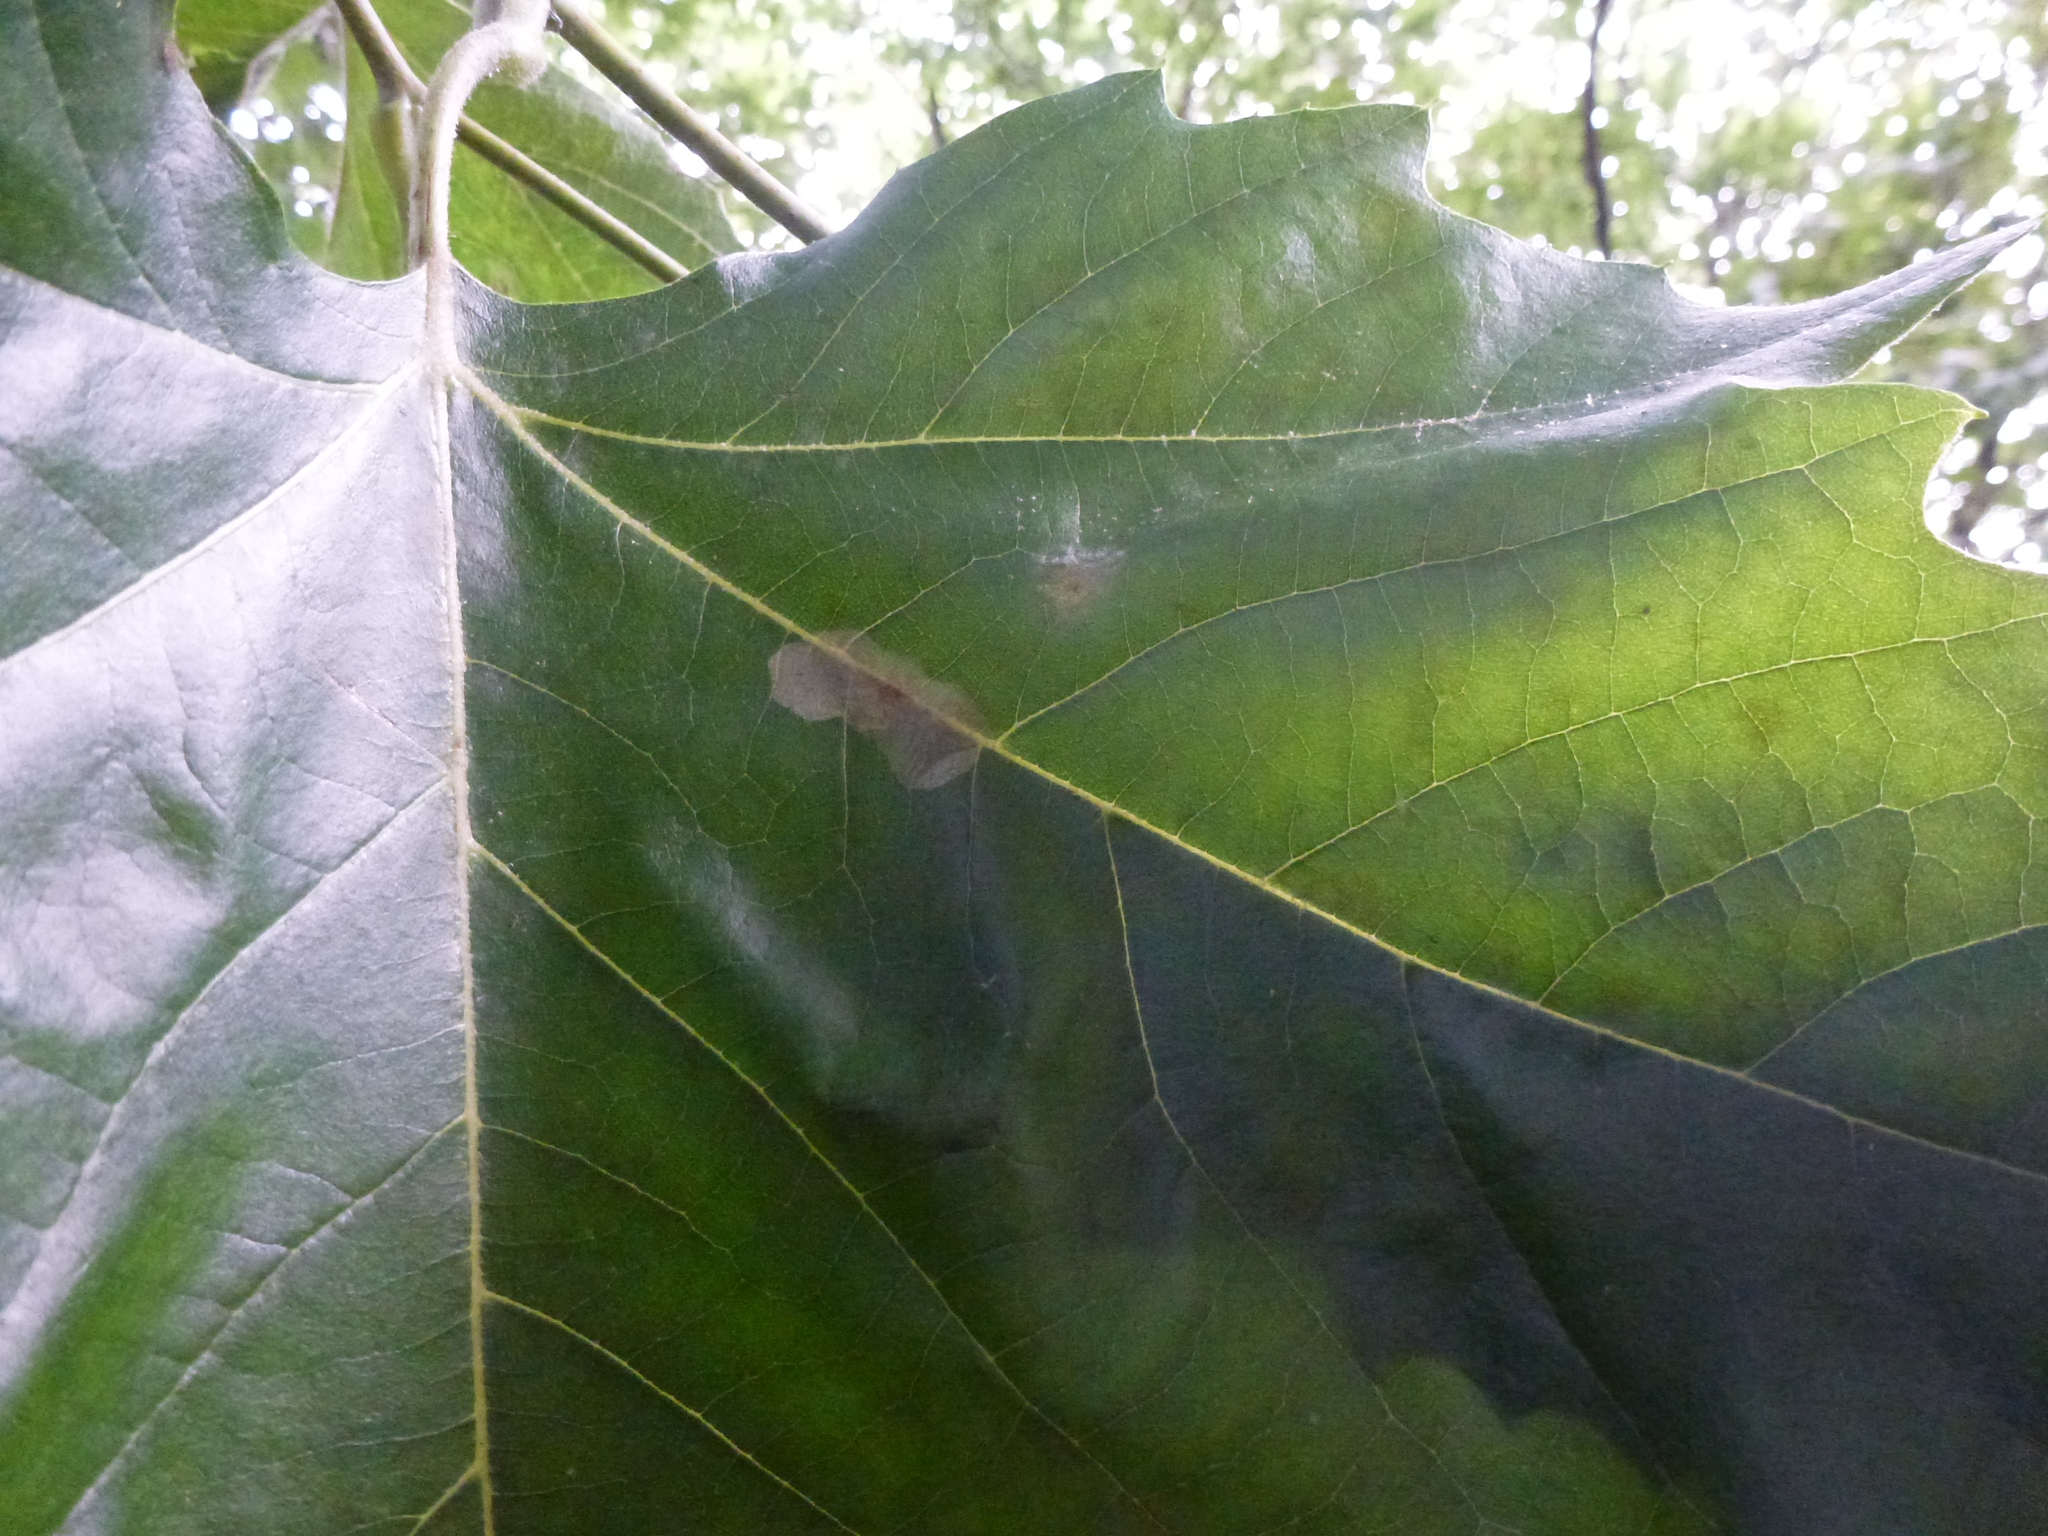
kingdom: Animalia
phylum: Arthropoda
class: Insecta
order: Lepidoptera
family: Gracillariidae
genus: Phyllonorycter
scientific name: Phyllonorycter leucographella
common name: Firethorn leaf-miner
